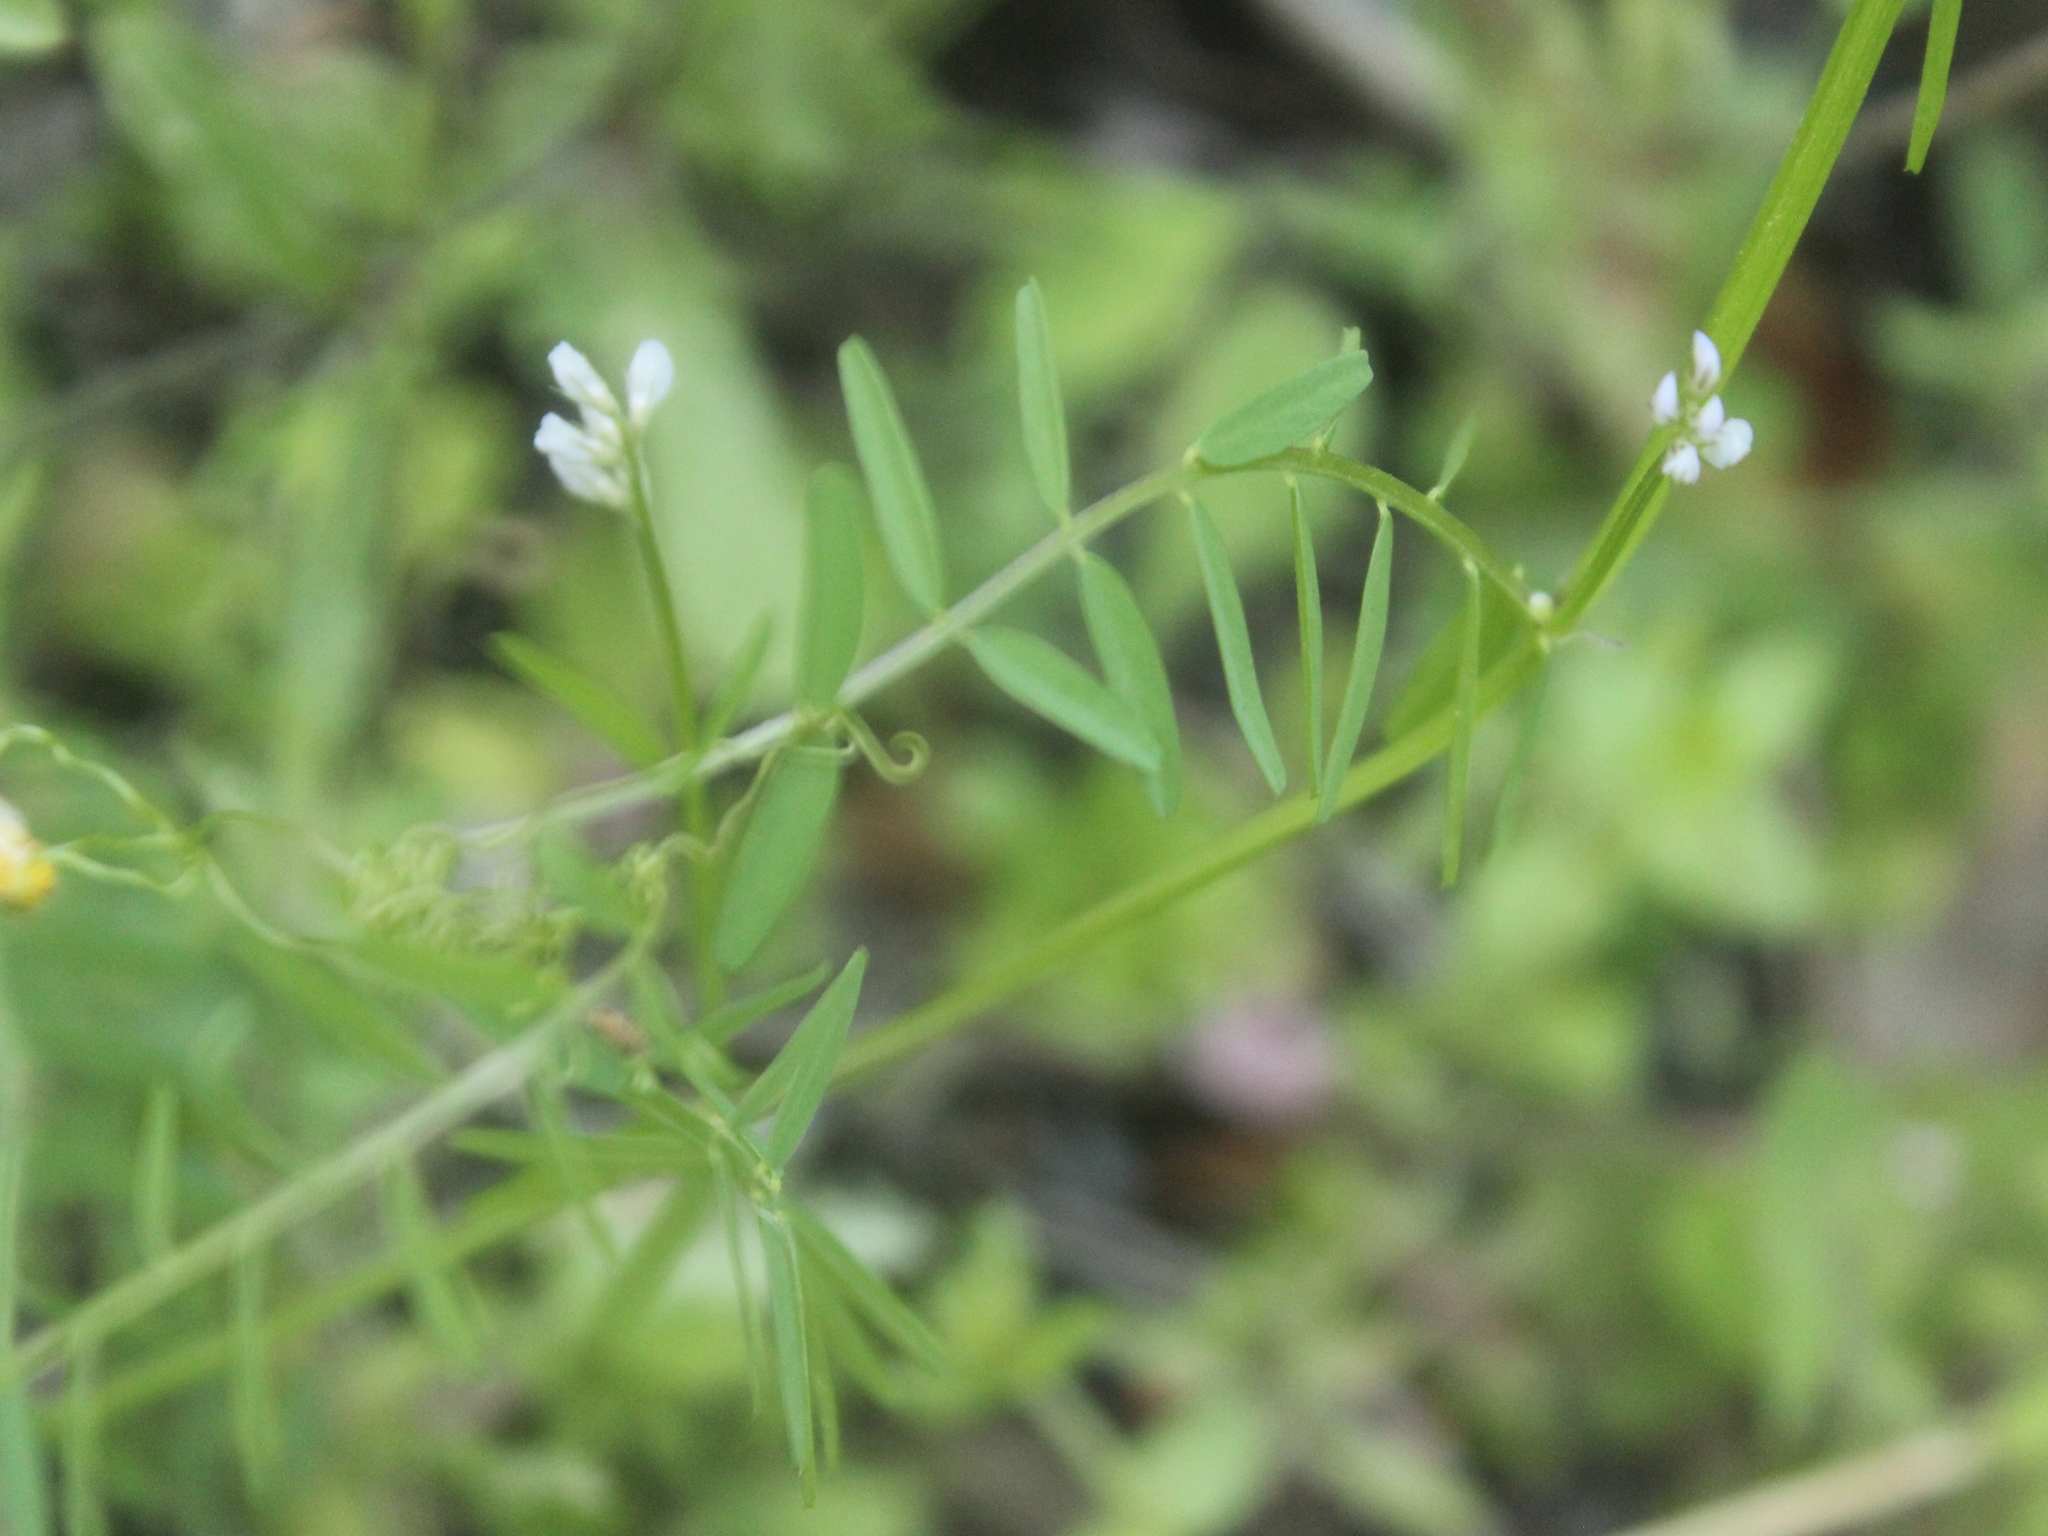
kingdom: Plantae
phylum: Tracheophyta
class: Magnoliopsida
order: Fabales
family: Fabaceae
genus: Vicia
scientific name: Vicia hirsuta
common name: Tiny vetch
